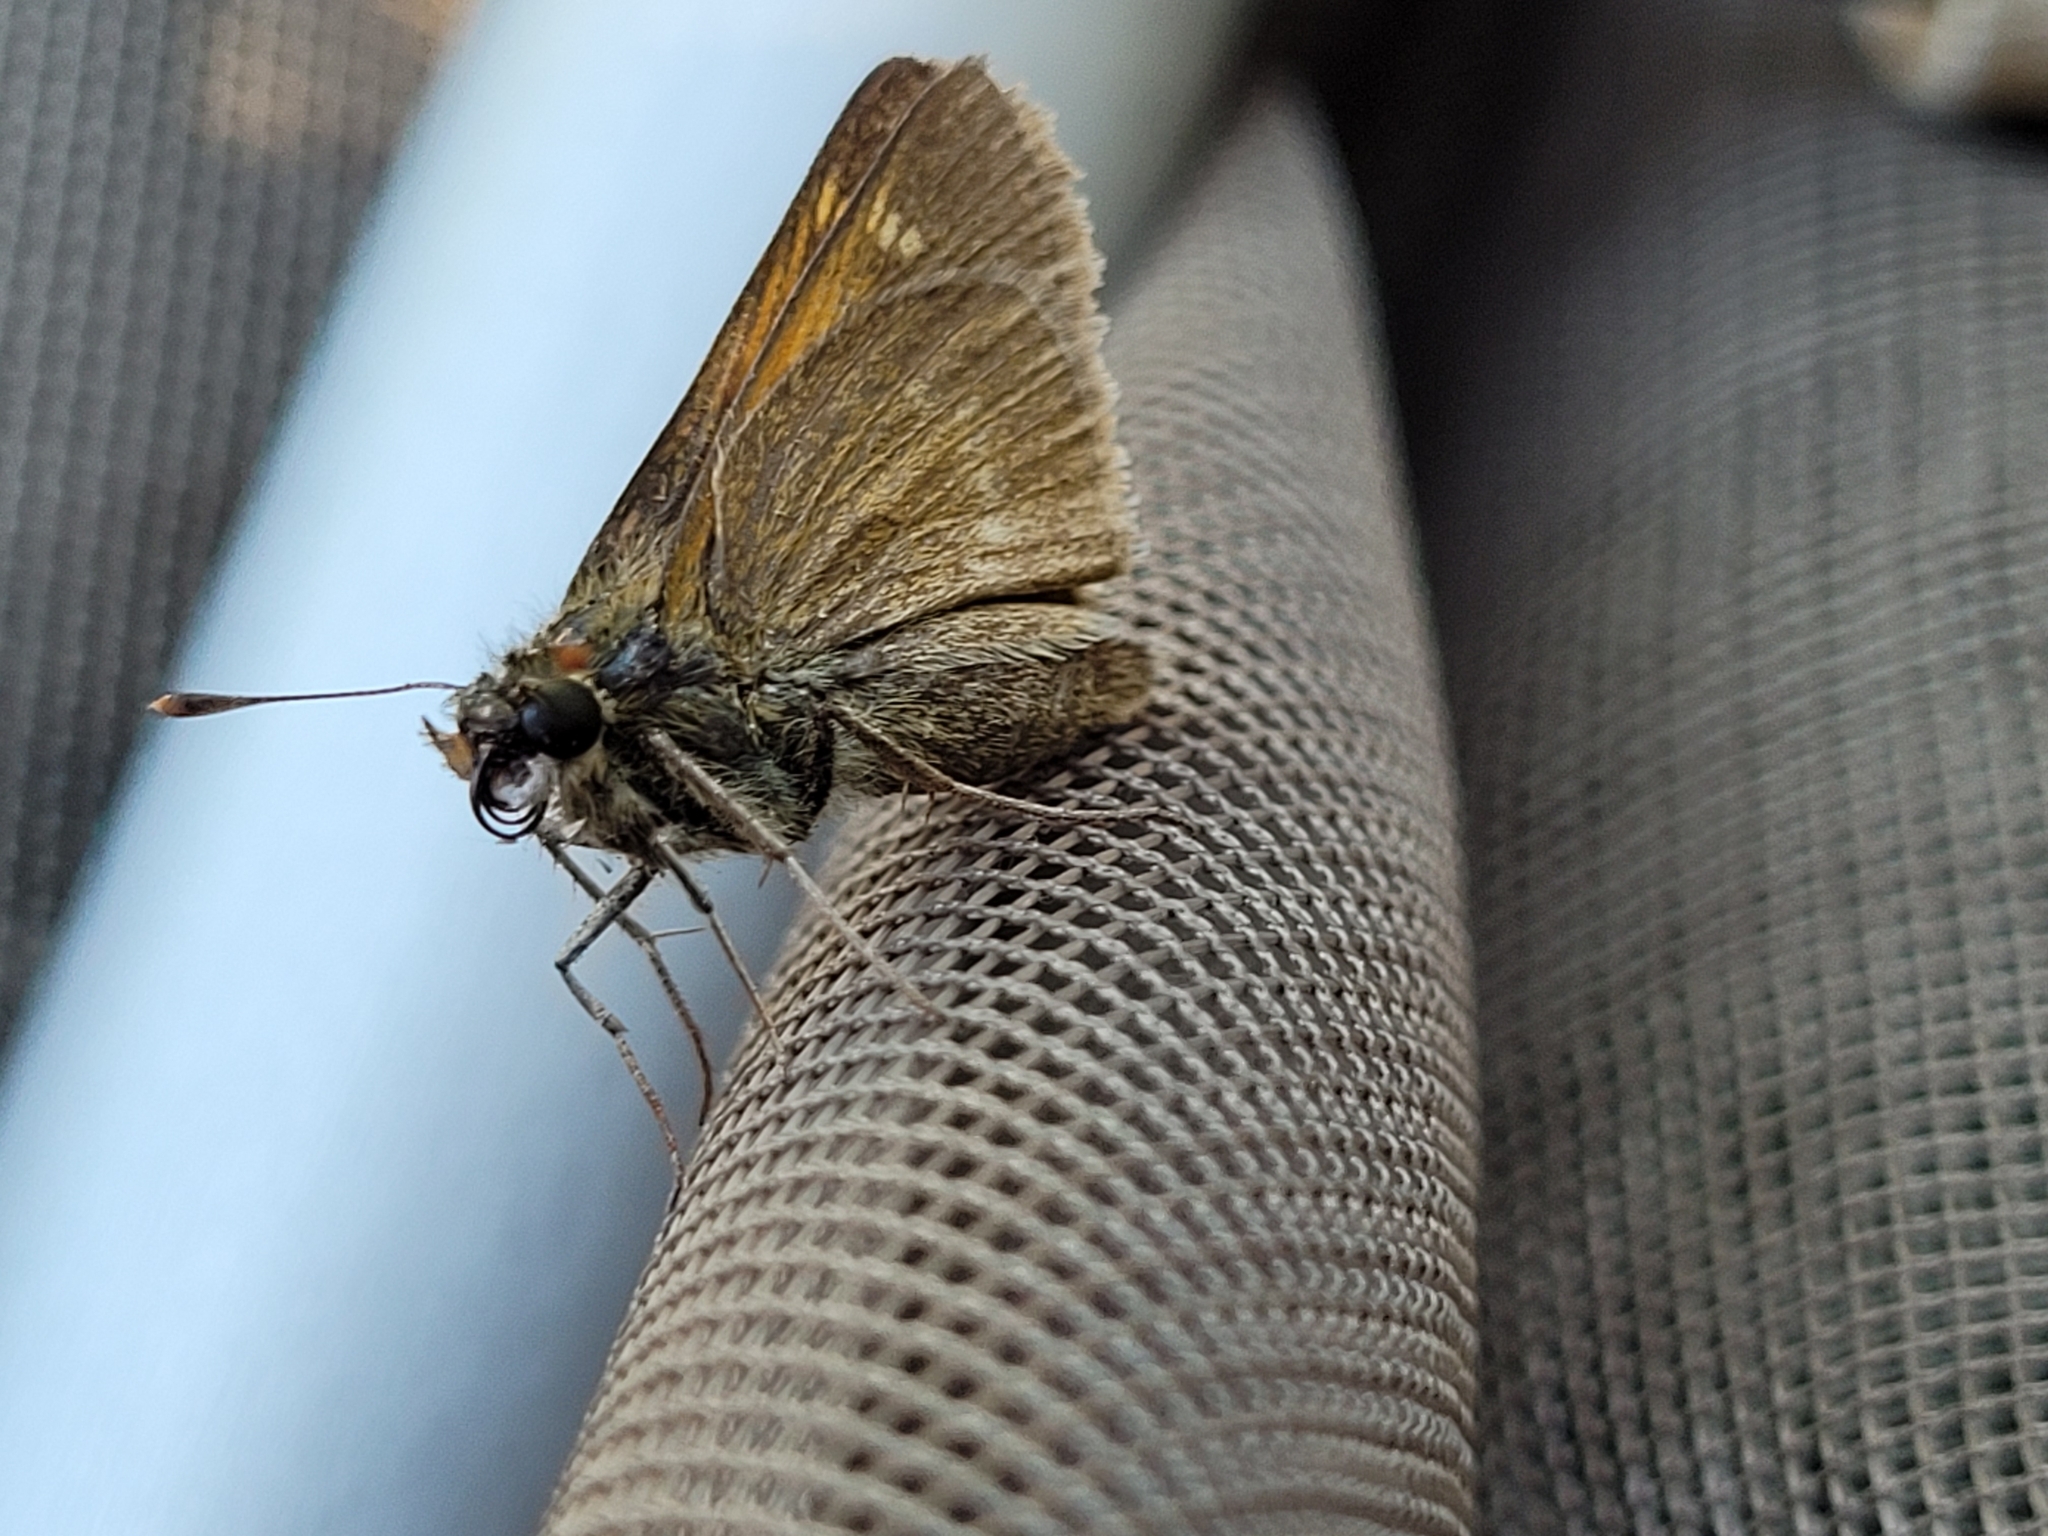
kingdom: Animalia
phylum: Arthropoda
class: Insecta
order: Lepidoptera
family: Hesperiidae
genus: Polites
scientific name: Polites themistocles
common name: Tawny-edged skipper
